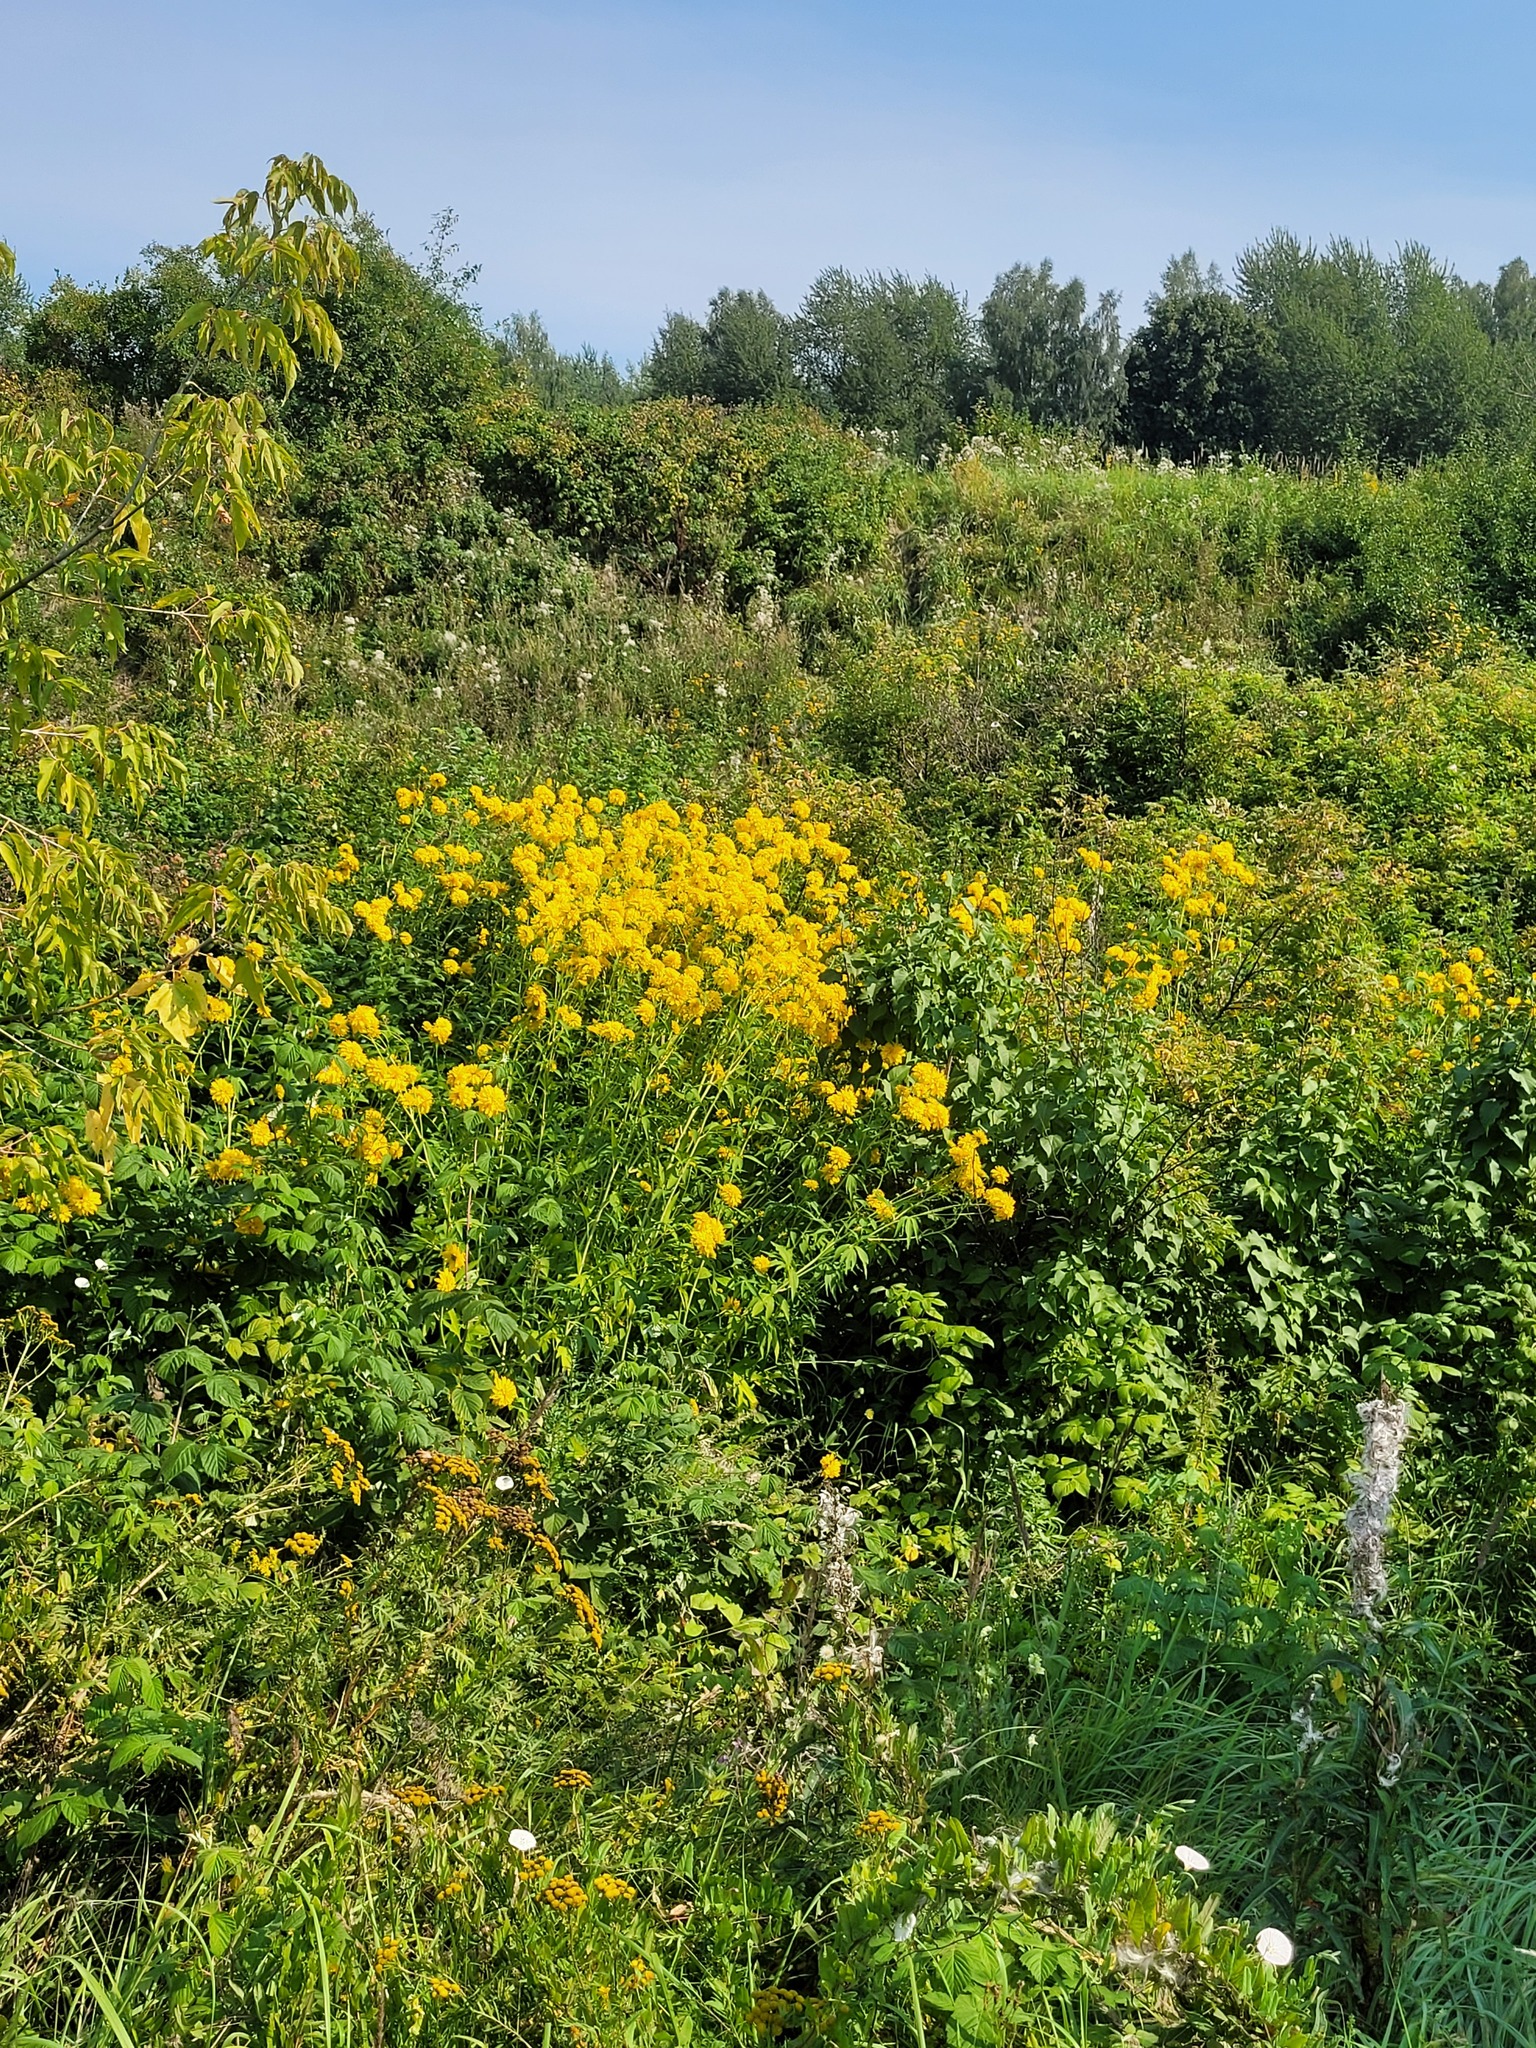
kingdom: Plantae
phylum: Tracheophyta
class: Magnoliopsida
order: Asterales
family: Asteraceae
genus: Rudbeckia
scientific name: Rudbeckia laciniata
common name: Coneflower
